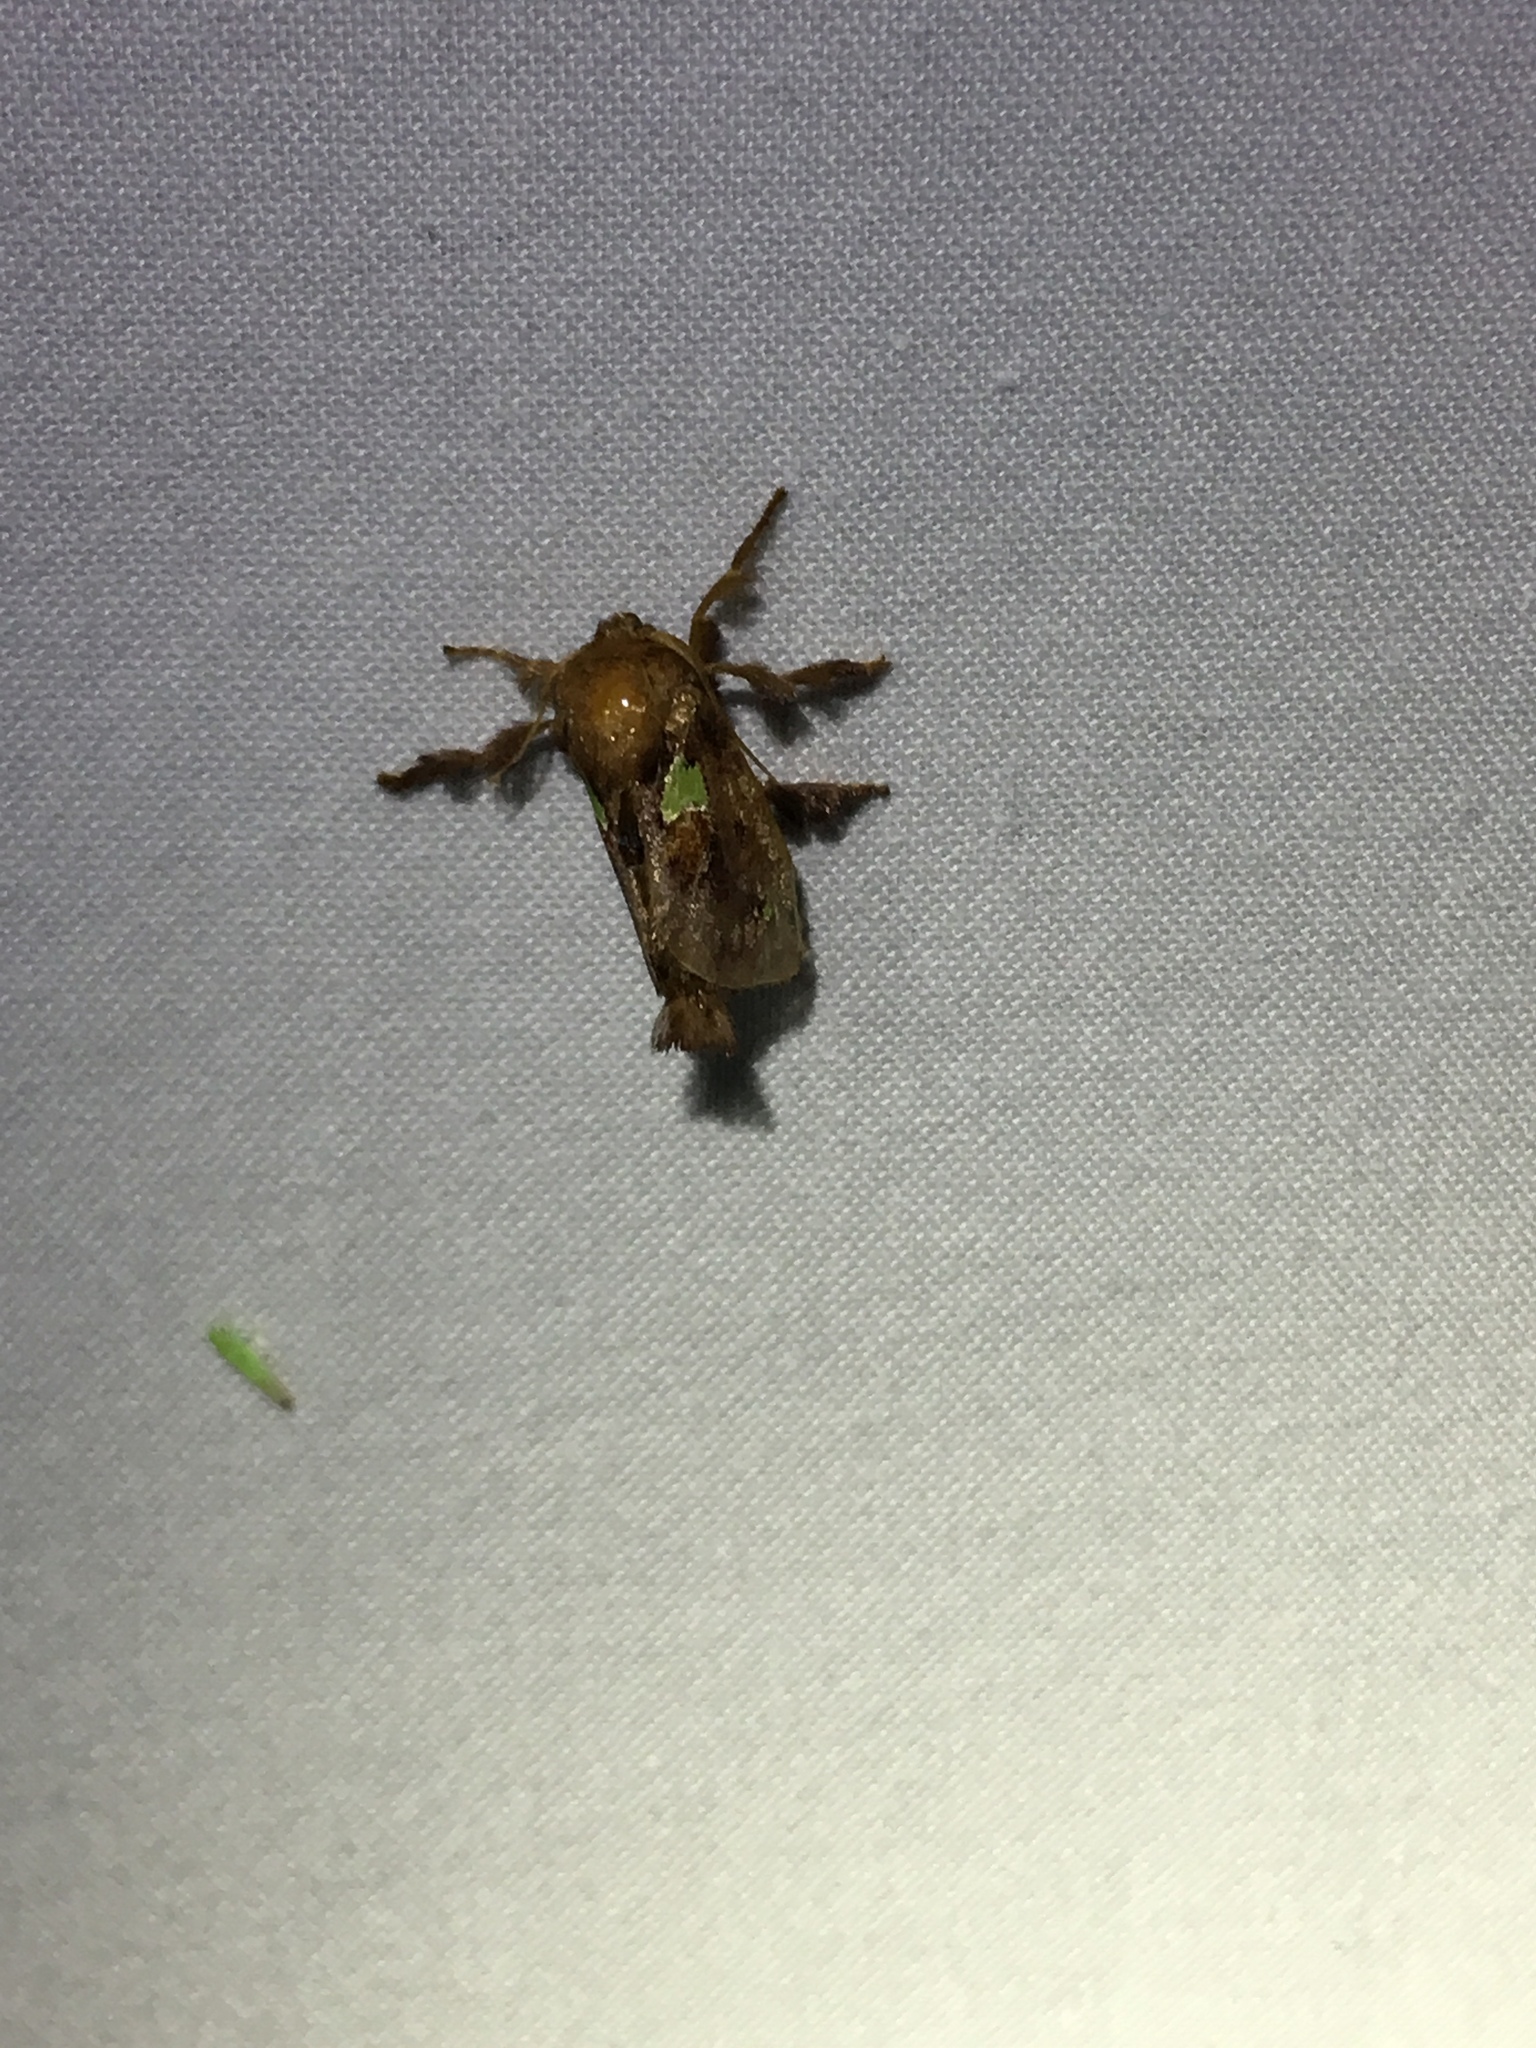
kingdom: Animalia
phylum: Arthropoda
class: Insecta
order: Lepidoptera
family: Limacodidae
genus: Euclea
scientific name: Euclea delphinii
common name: Spiny oak-slug moth
